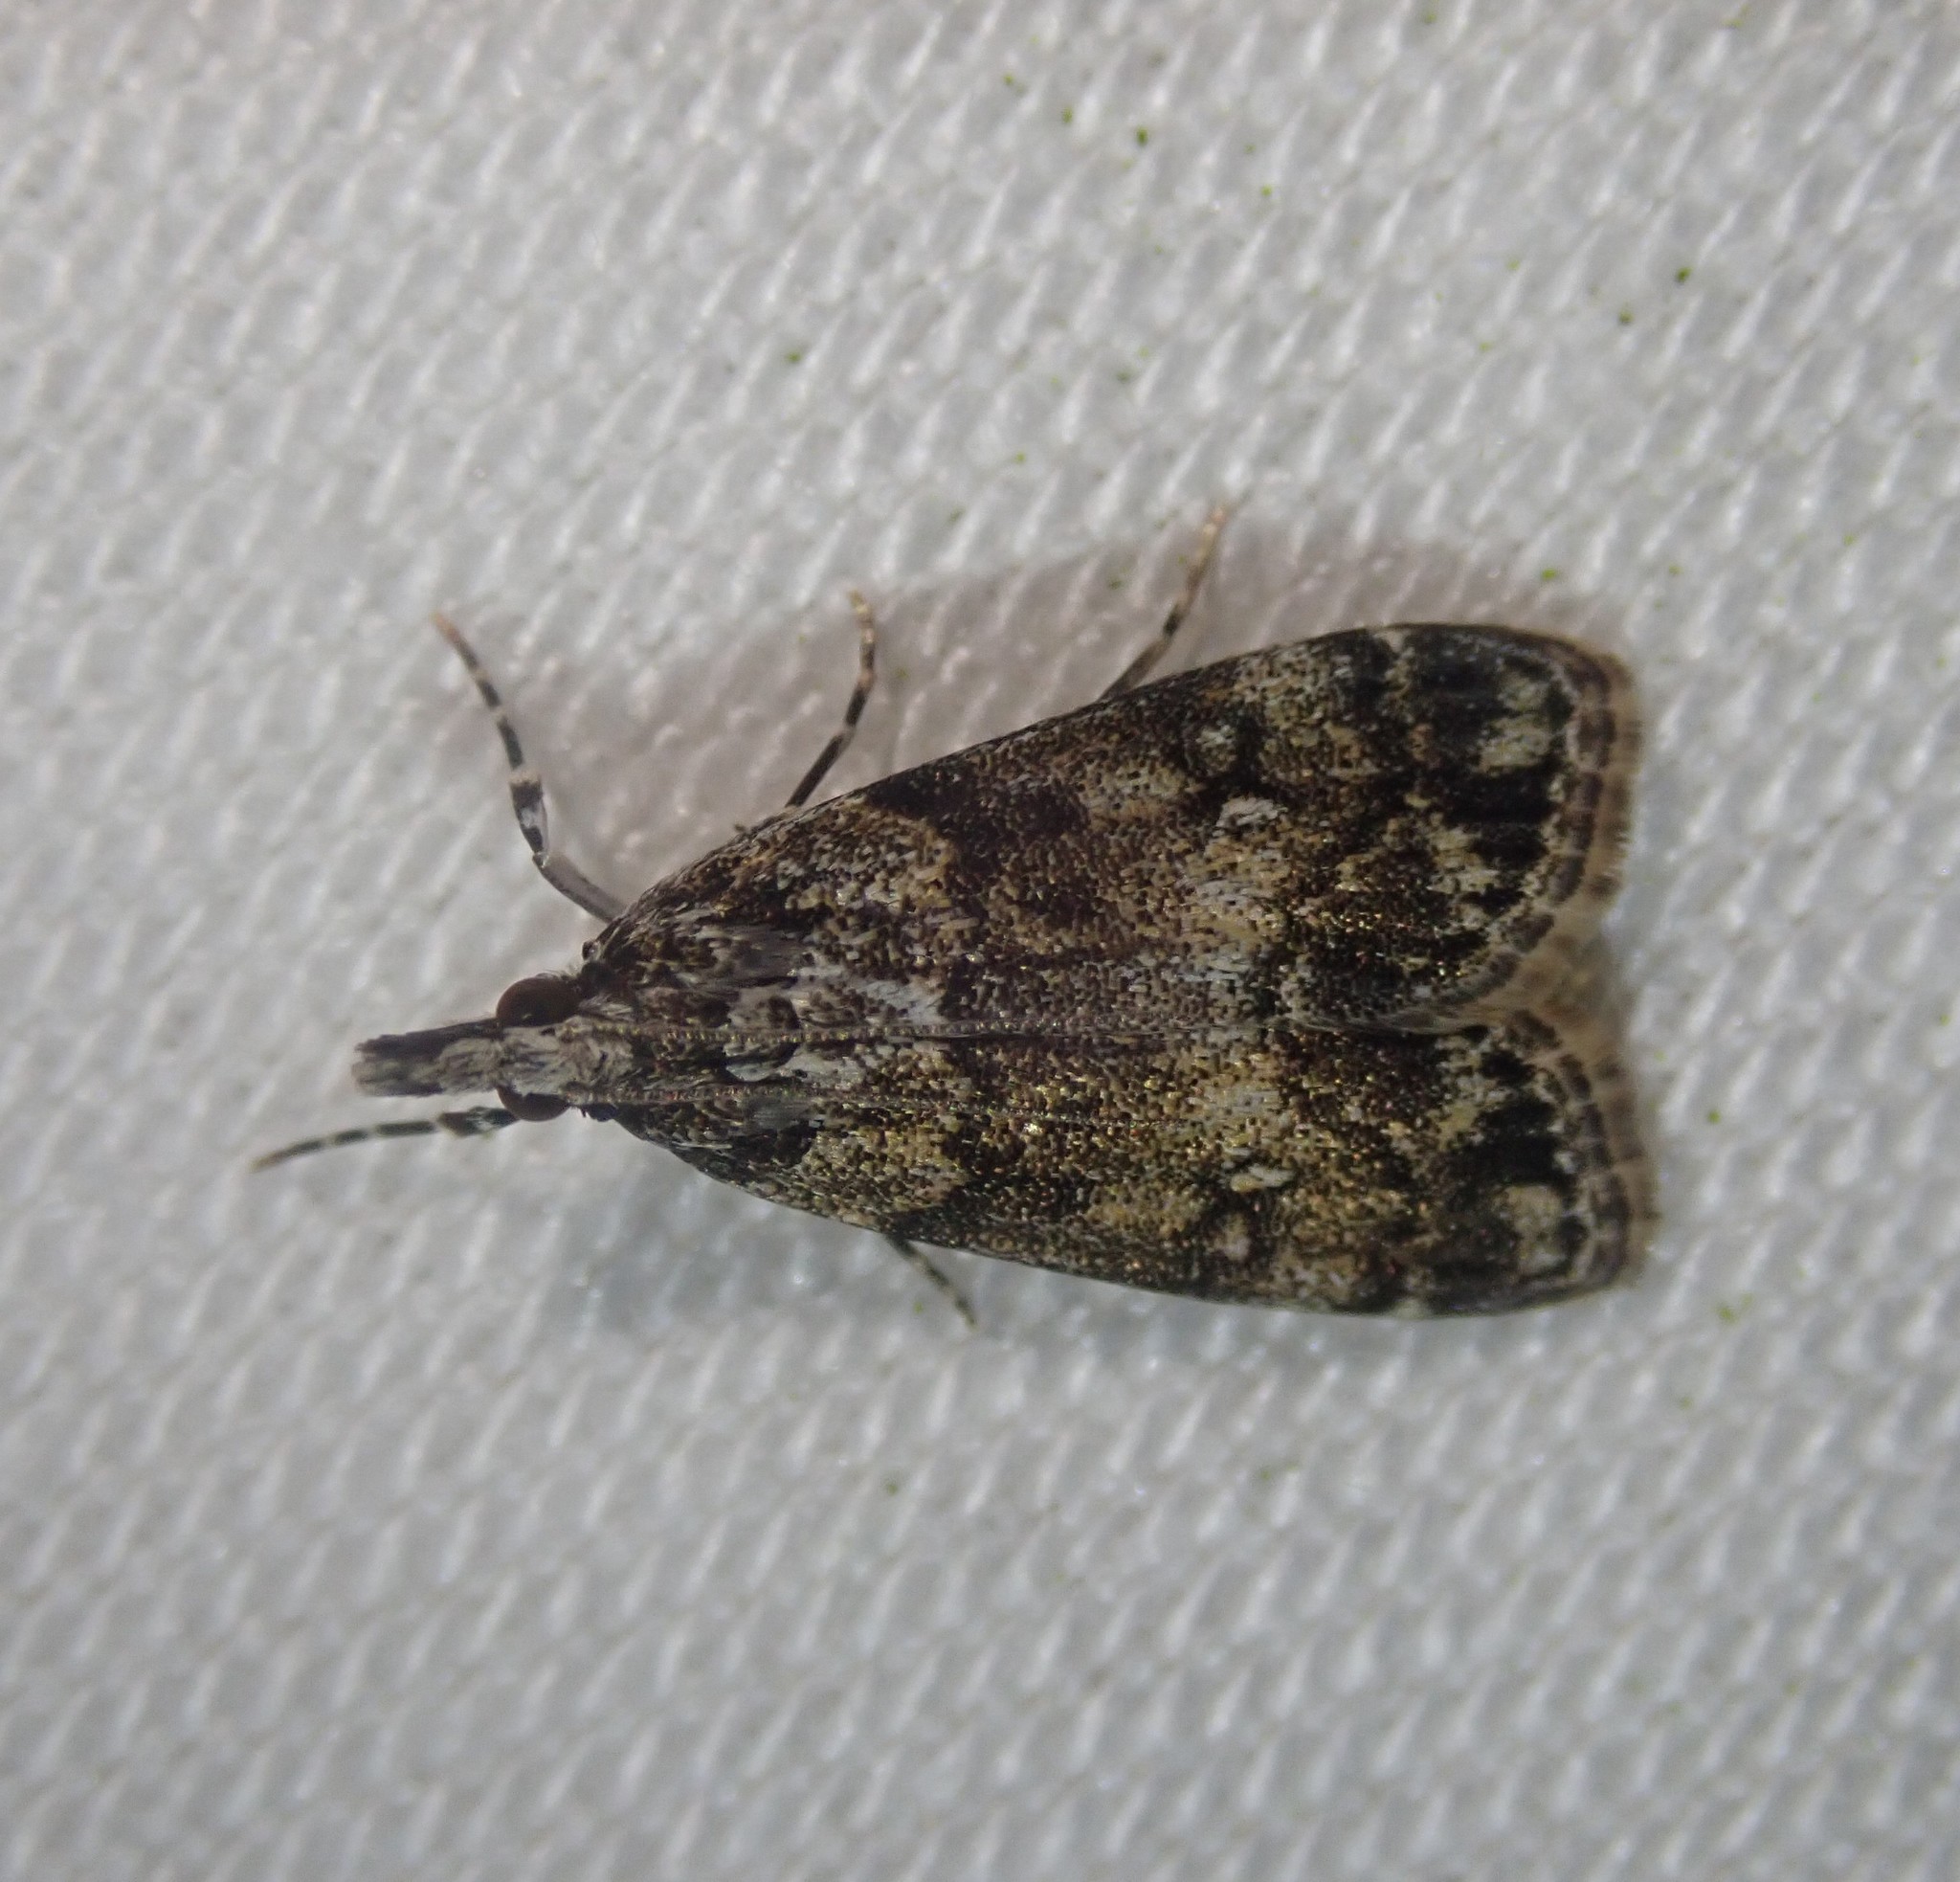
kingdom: Animalia
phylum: Arthropoda
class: Insecta
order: Lepidoptera
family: Crambidae
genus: Eudonia
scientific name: Eudonia lacustrata
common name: Little grey
